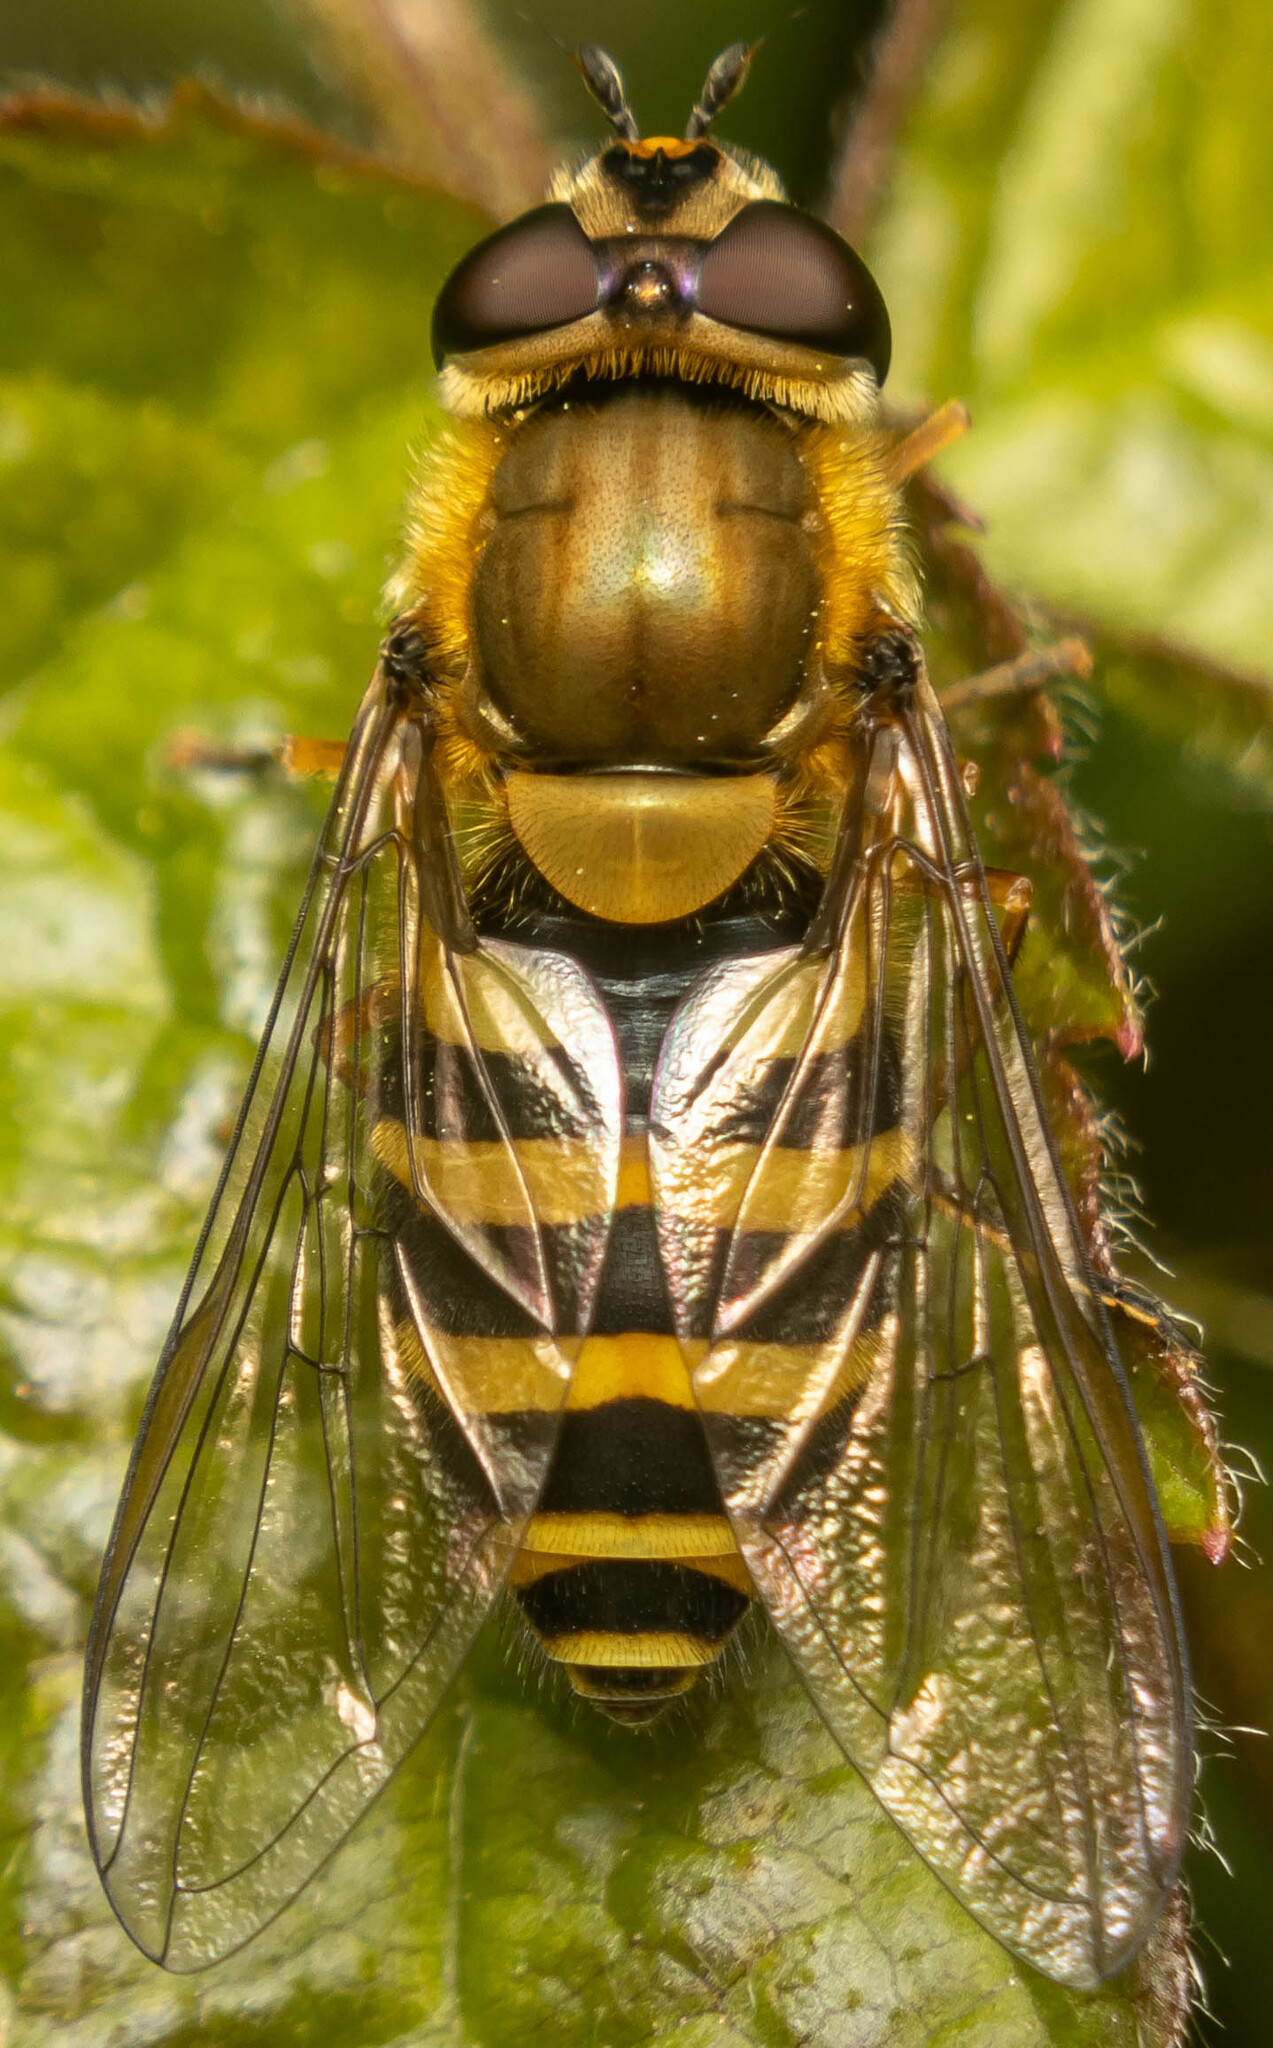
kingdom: Animalia
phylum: Arthropoda
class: Insecta
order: Diptera
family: Syrphidae
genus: Syrphus
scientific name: Syrphus
